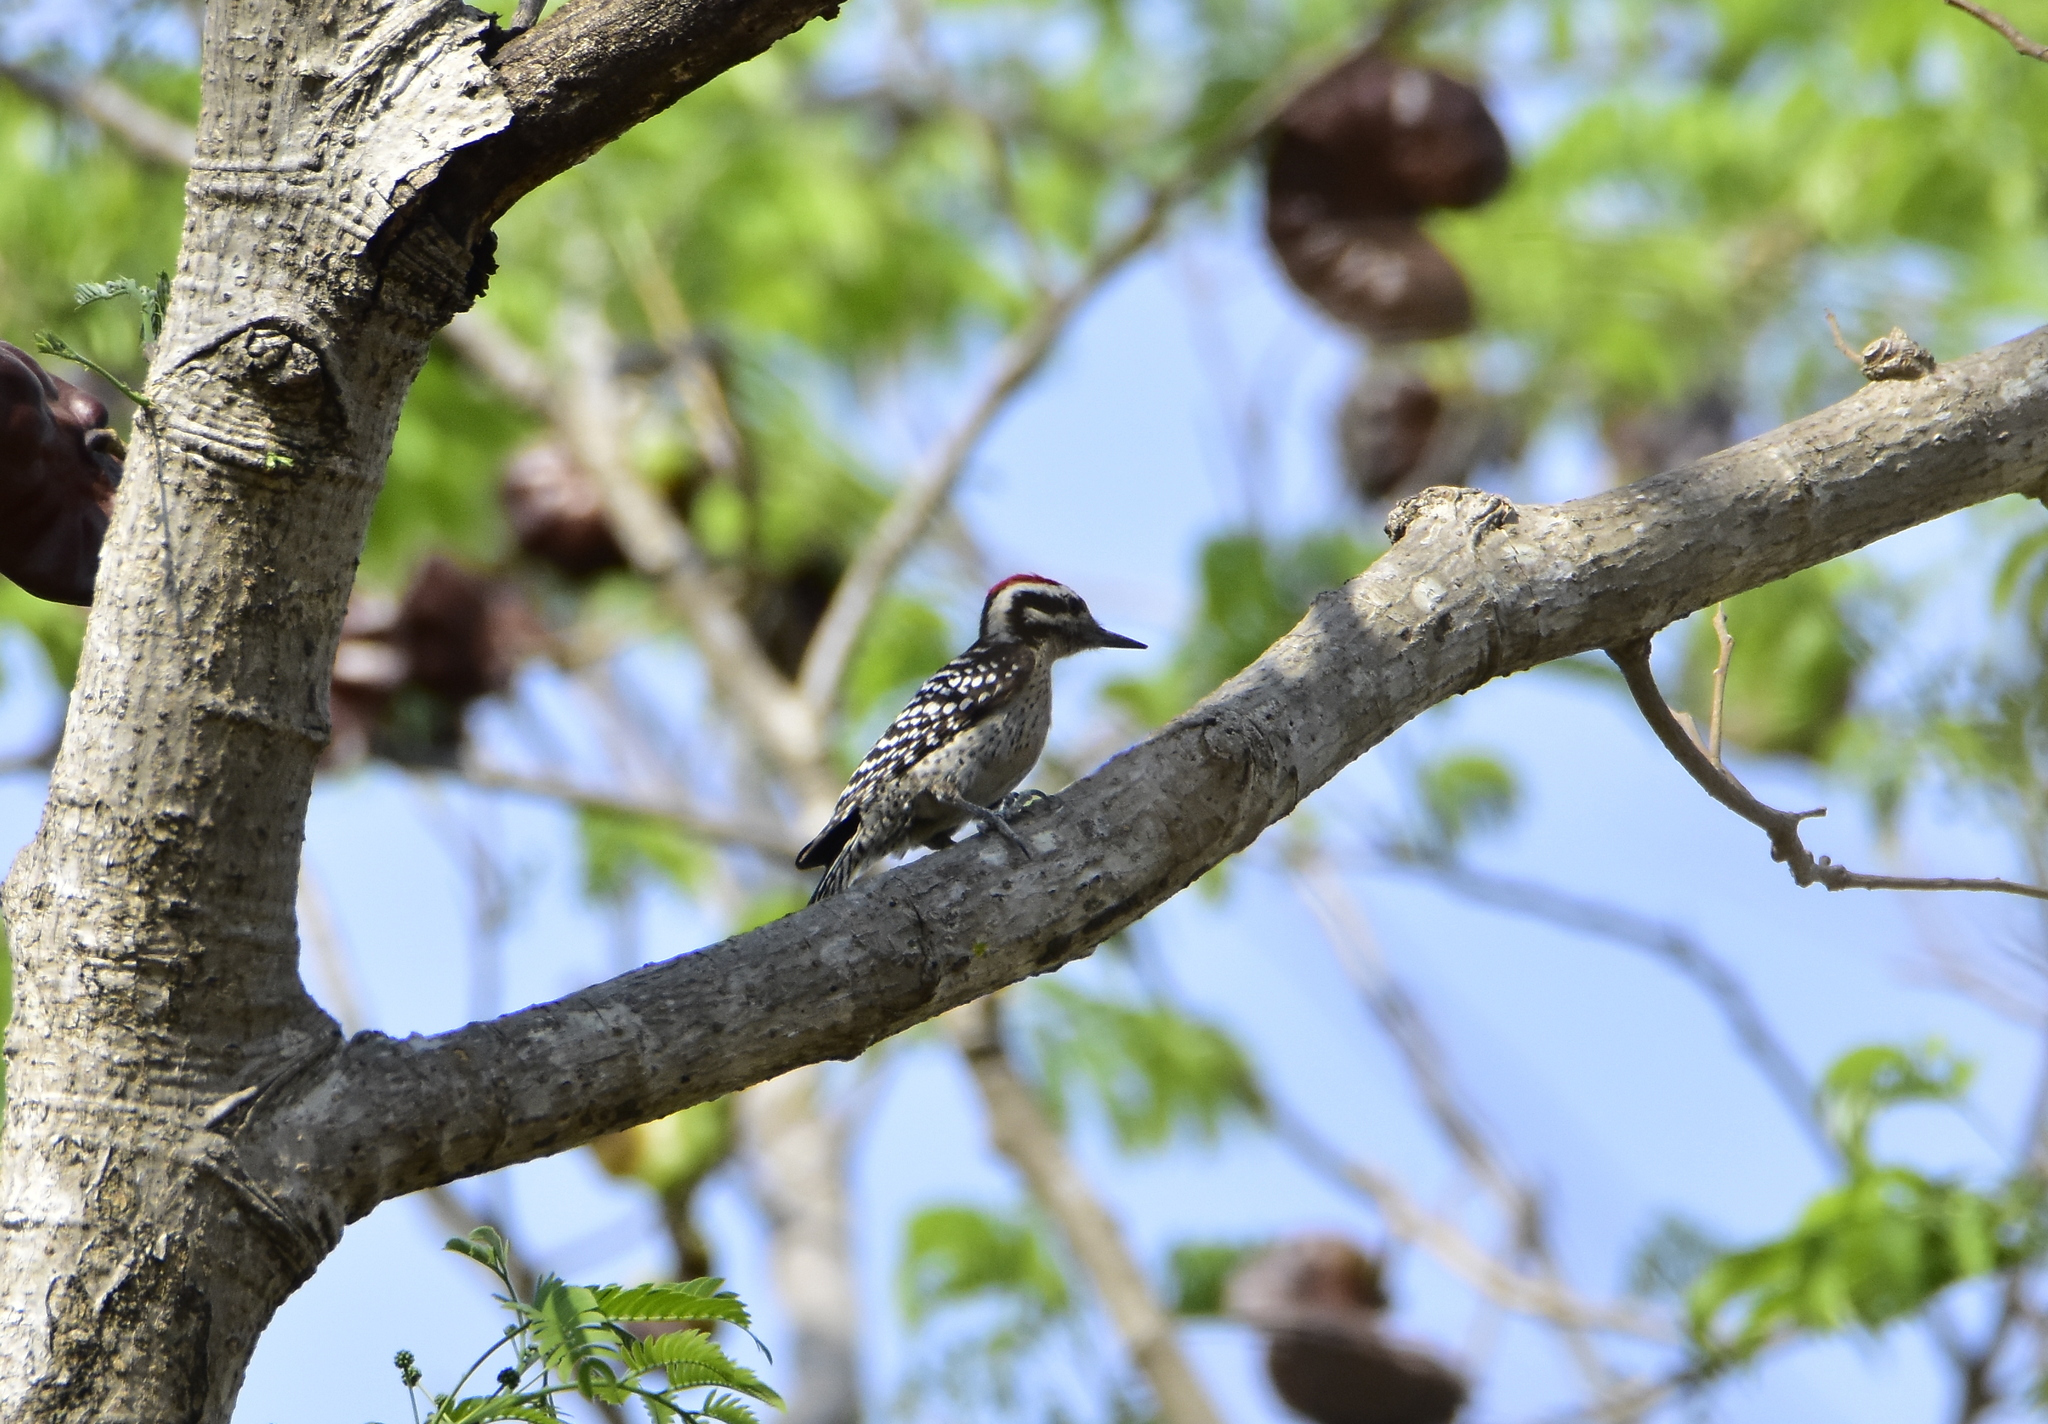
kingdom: Animalia
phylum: Chordata
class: Aves
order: Piciformes
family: Picidae
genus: Dryobates
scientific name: Dryobates scalaris
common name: Ladder-backed woodpecker
